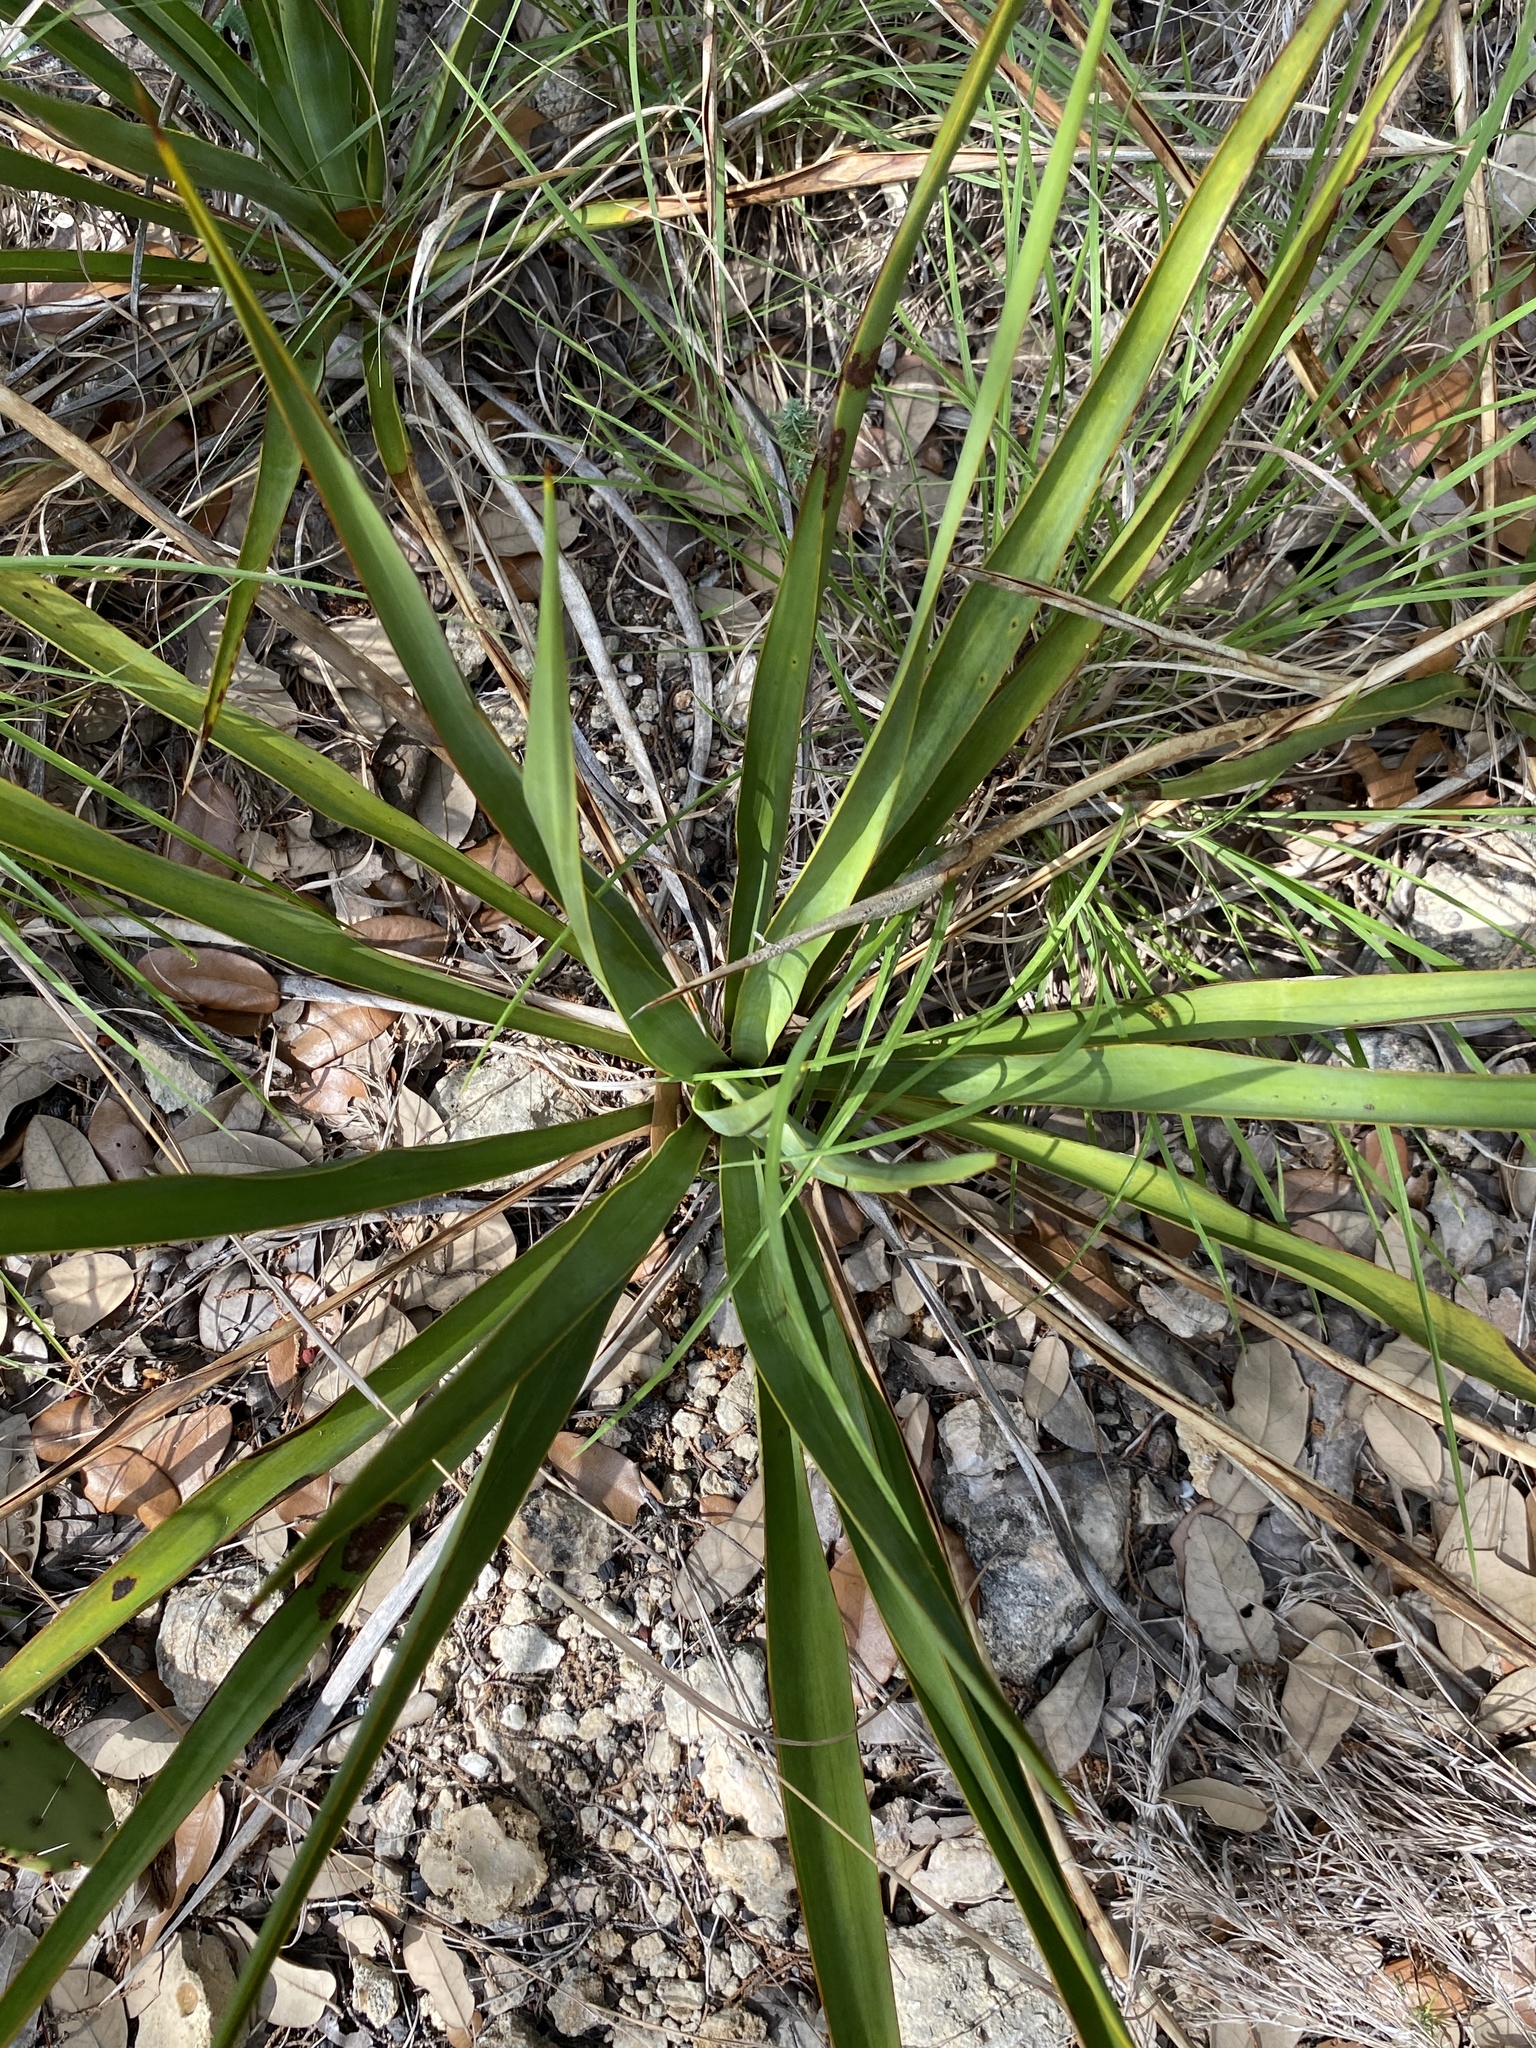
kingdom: Plantae
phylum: Tracheophyta
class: Liliopsida
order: Asparagales
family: Asparagaceae
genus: Yucca
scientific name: Yucca rupicola
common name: Twisted-leaf spanish-dagger
